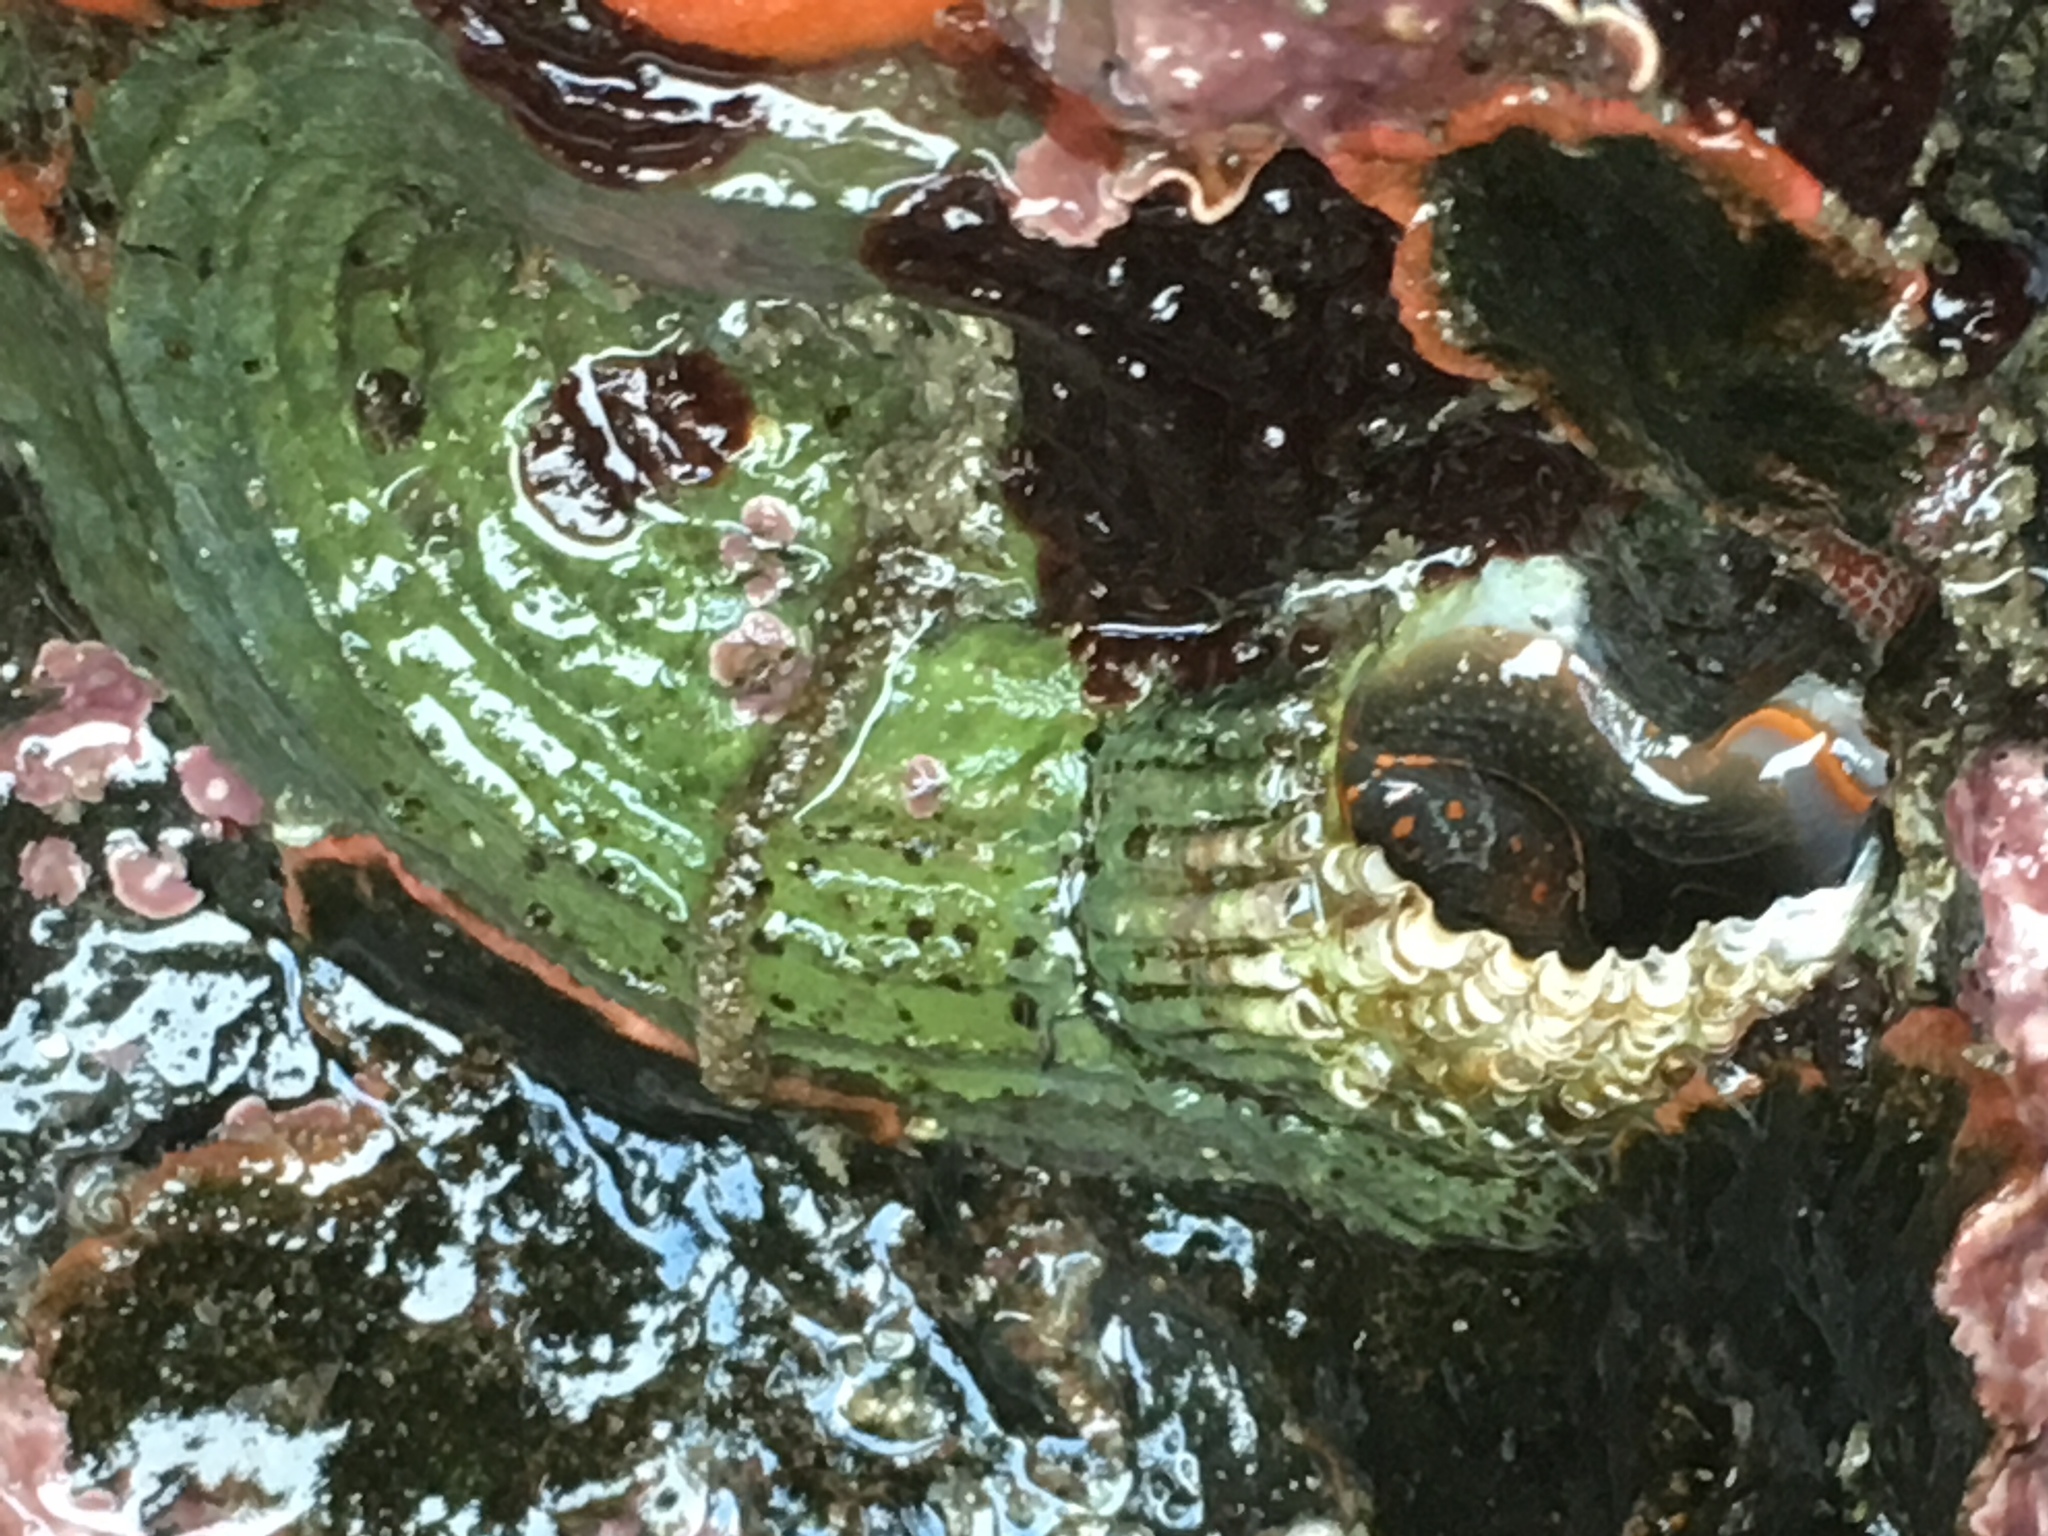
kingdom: Animalia
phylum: Mollusca
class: Gastropoda
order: Littorinimorpha
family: Vermetidae
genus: Thylacodes
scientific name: Thylacodes squamigerus
